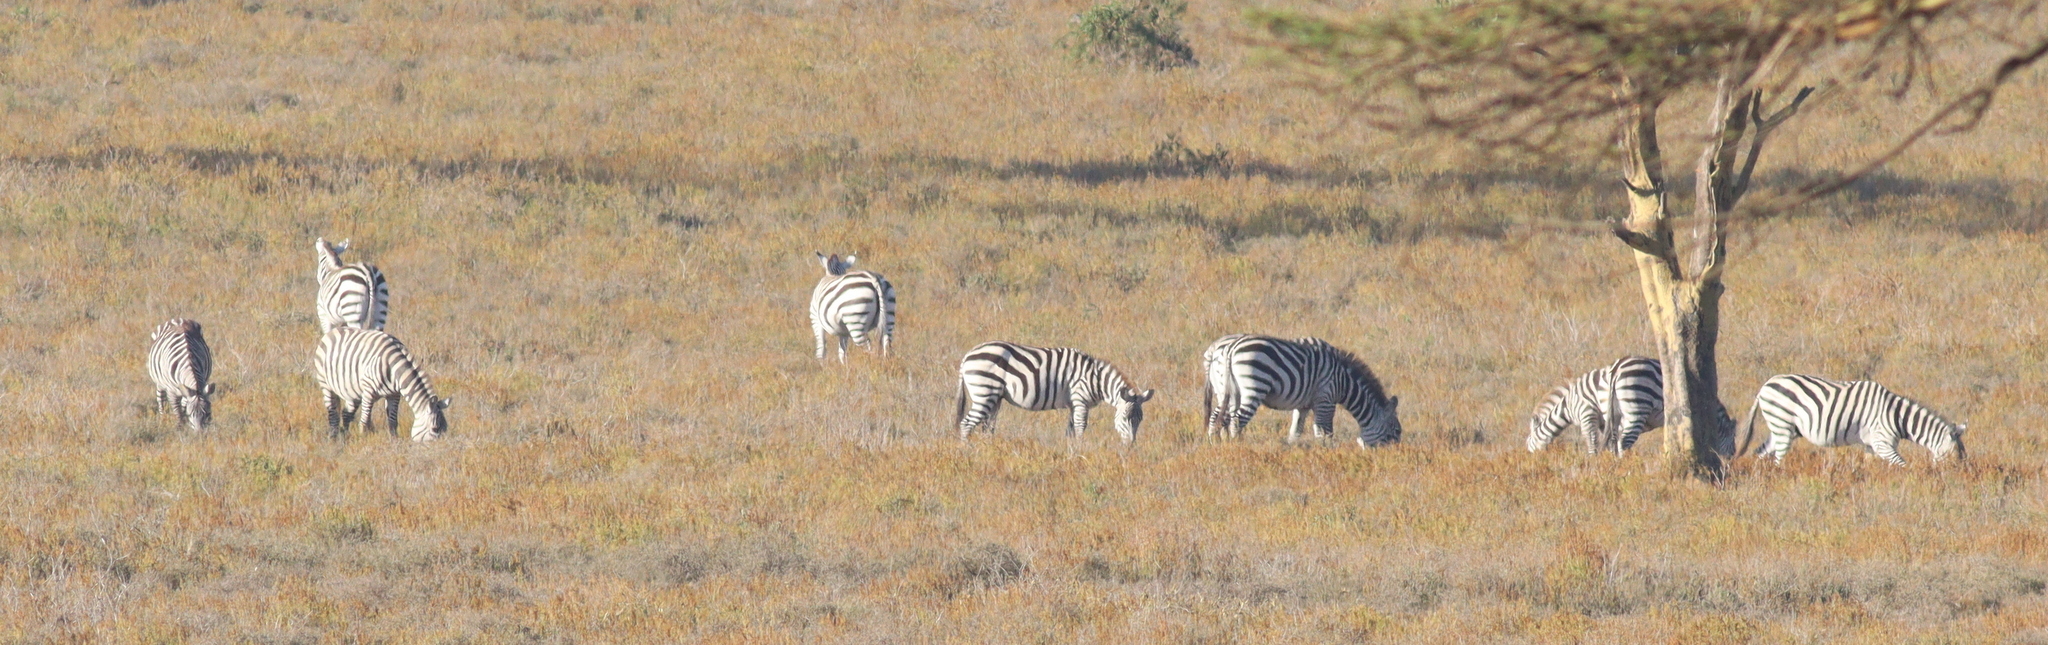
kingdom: Animalia
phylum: Chordata
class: Mammalia
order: Perissodactyla
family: Equidae
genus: Equus
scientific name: Equus quagga
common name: Plains zebra
